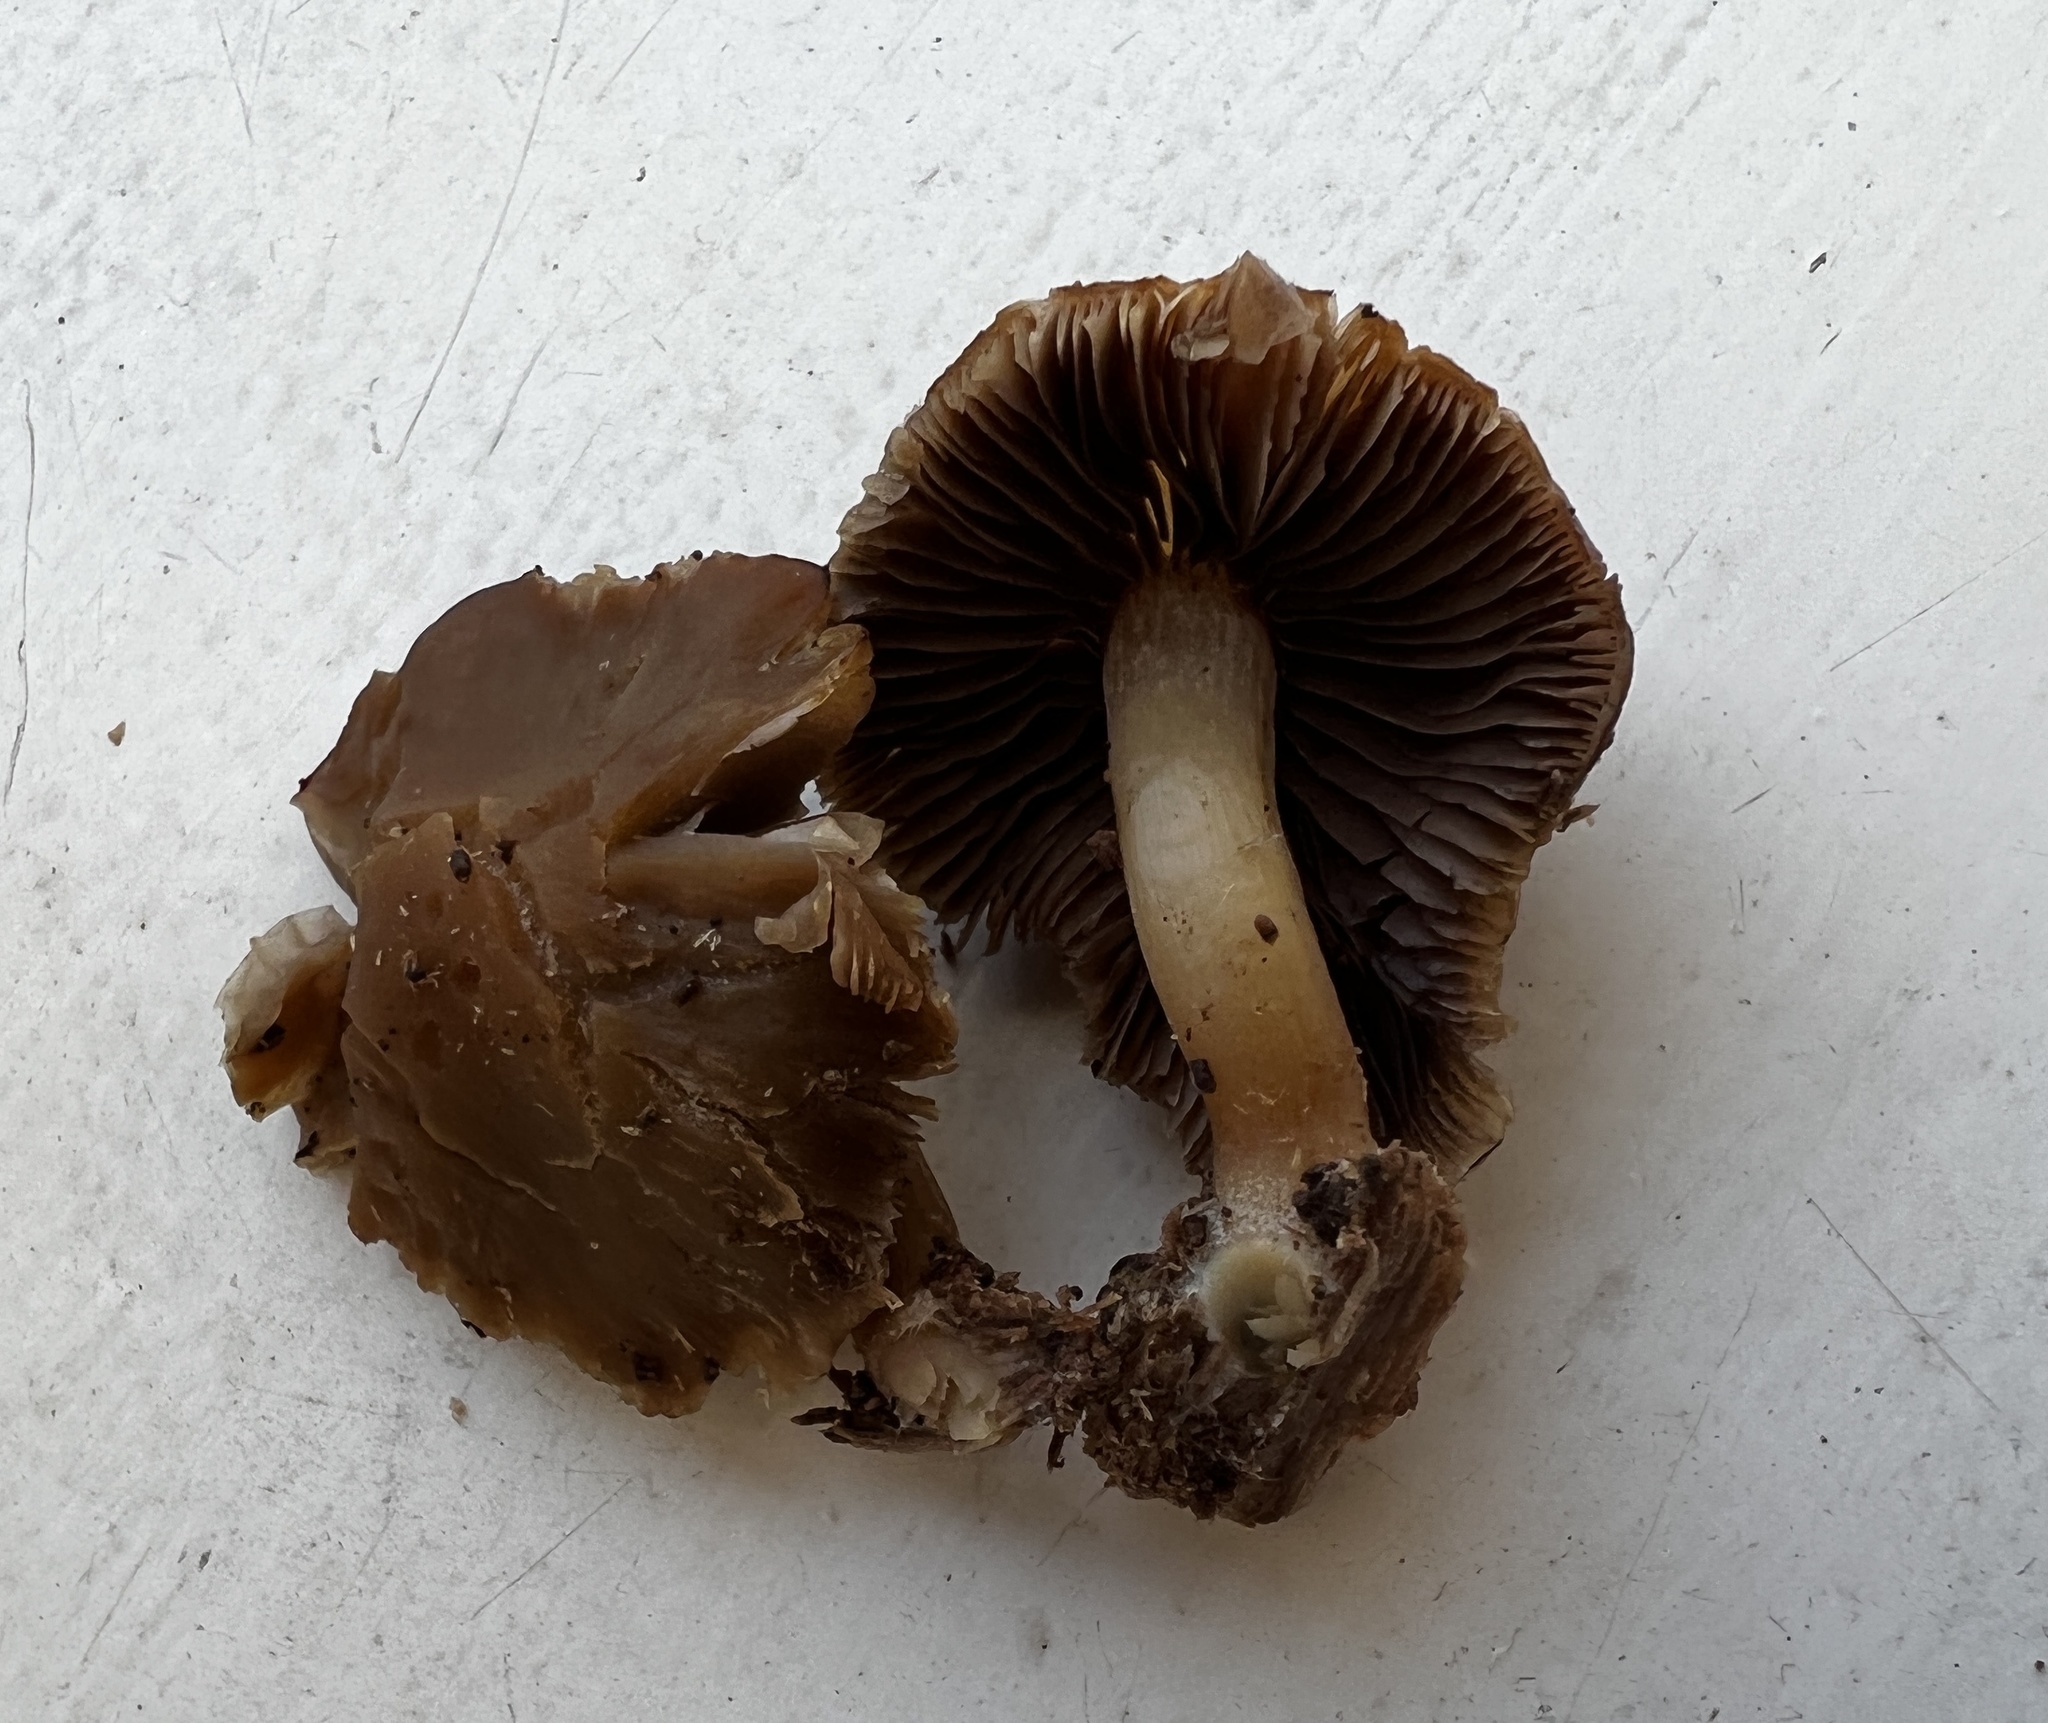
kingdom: Fungi
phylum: Basidiomycota
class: Agaricomycetes
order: Agaricales
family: Psathyrellaceae
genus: Psathyrella
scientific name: Psathyrella piluliformis
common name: Common stump brittlestem
